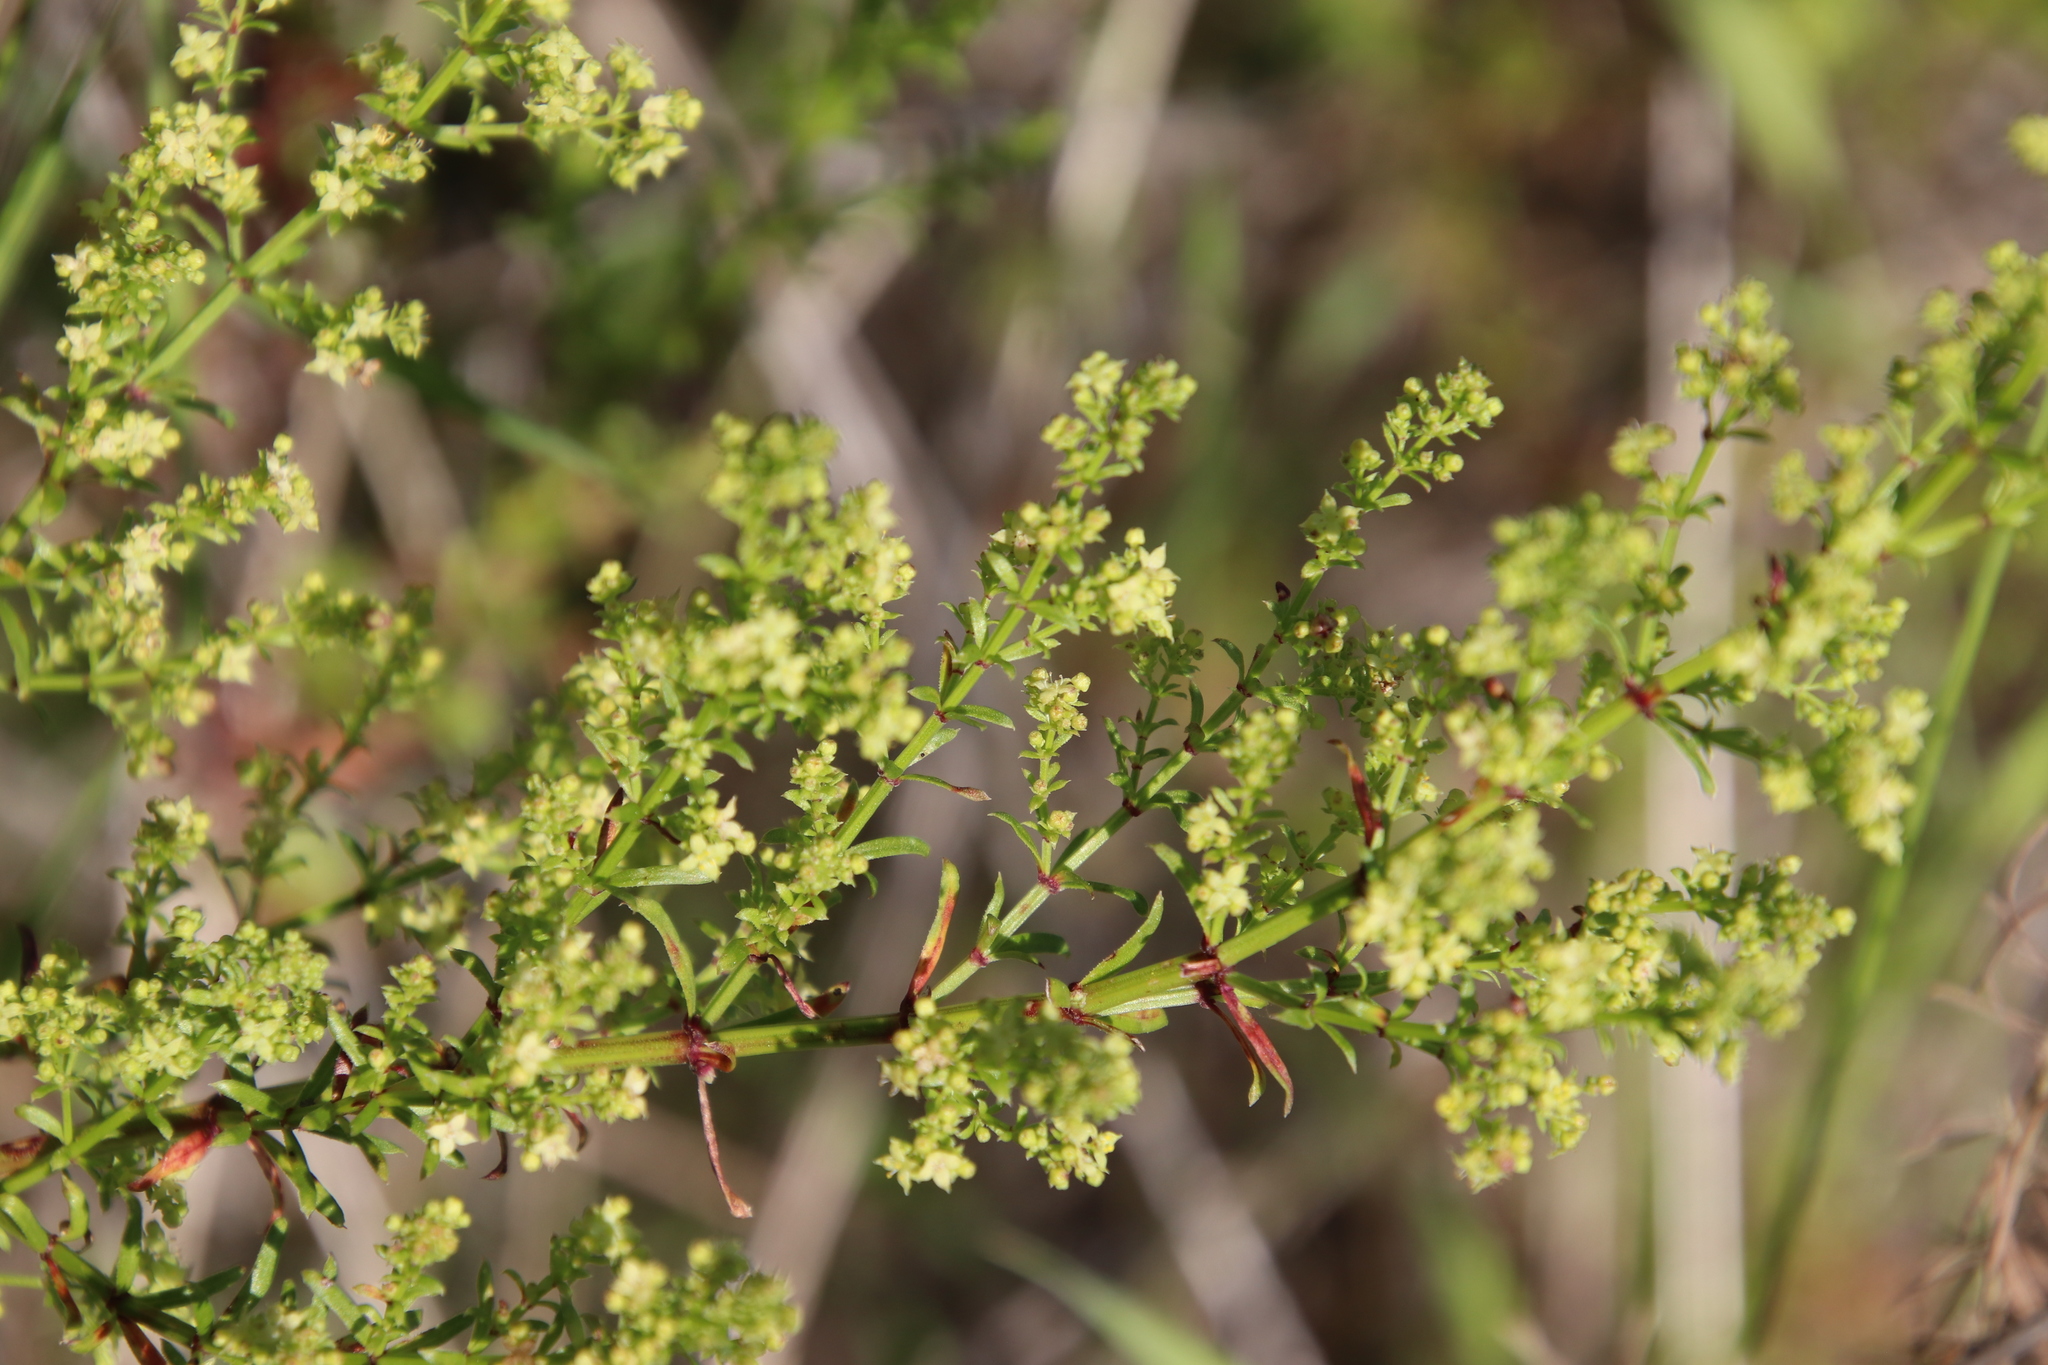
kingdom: Plantae
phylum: Tracheophyta
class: Magnoliopsida
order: Gentianales
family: Rubiaceae
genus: Galium
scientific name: Galium angustifolium
